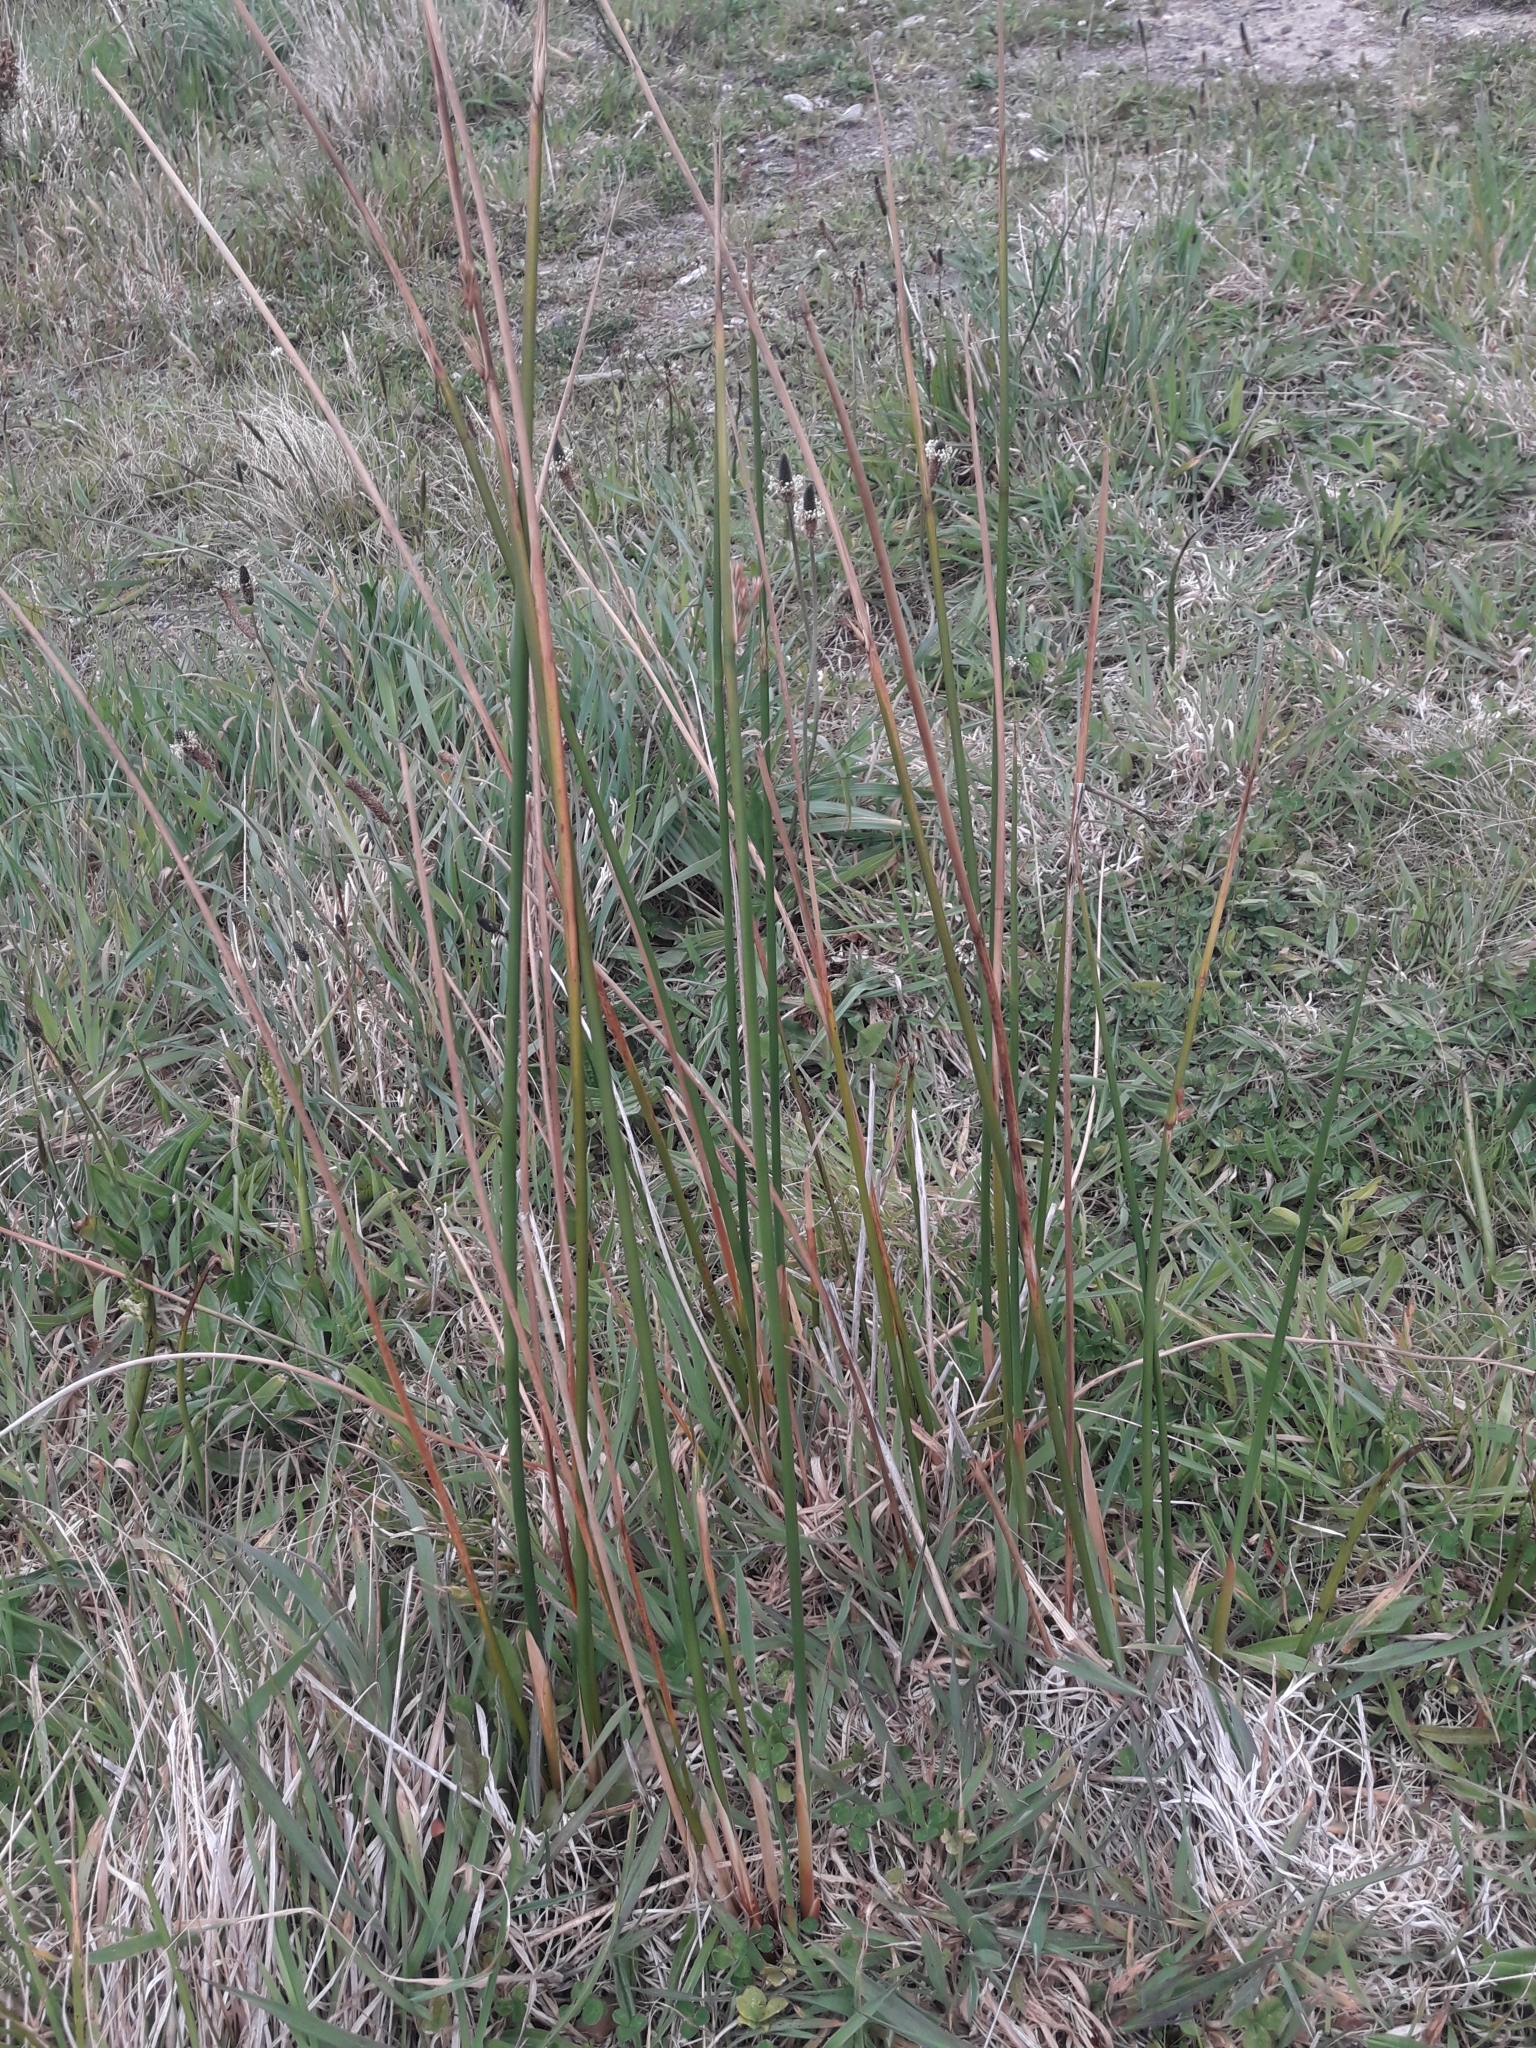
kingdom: Plantae
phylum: Tracheophyta
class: Liliopsida
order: Poales
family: Juncaceae
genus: Juncus
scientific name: Juncus pallidus
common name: Great soft-rush
